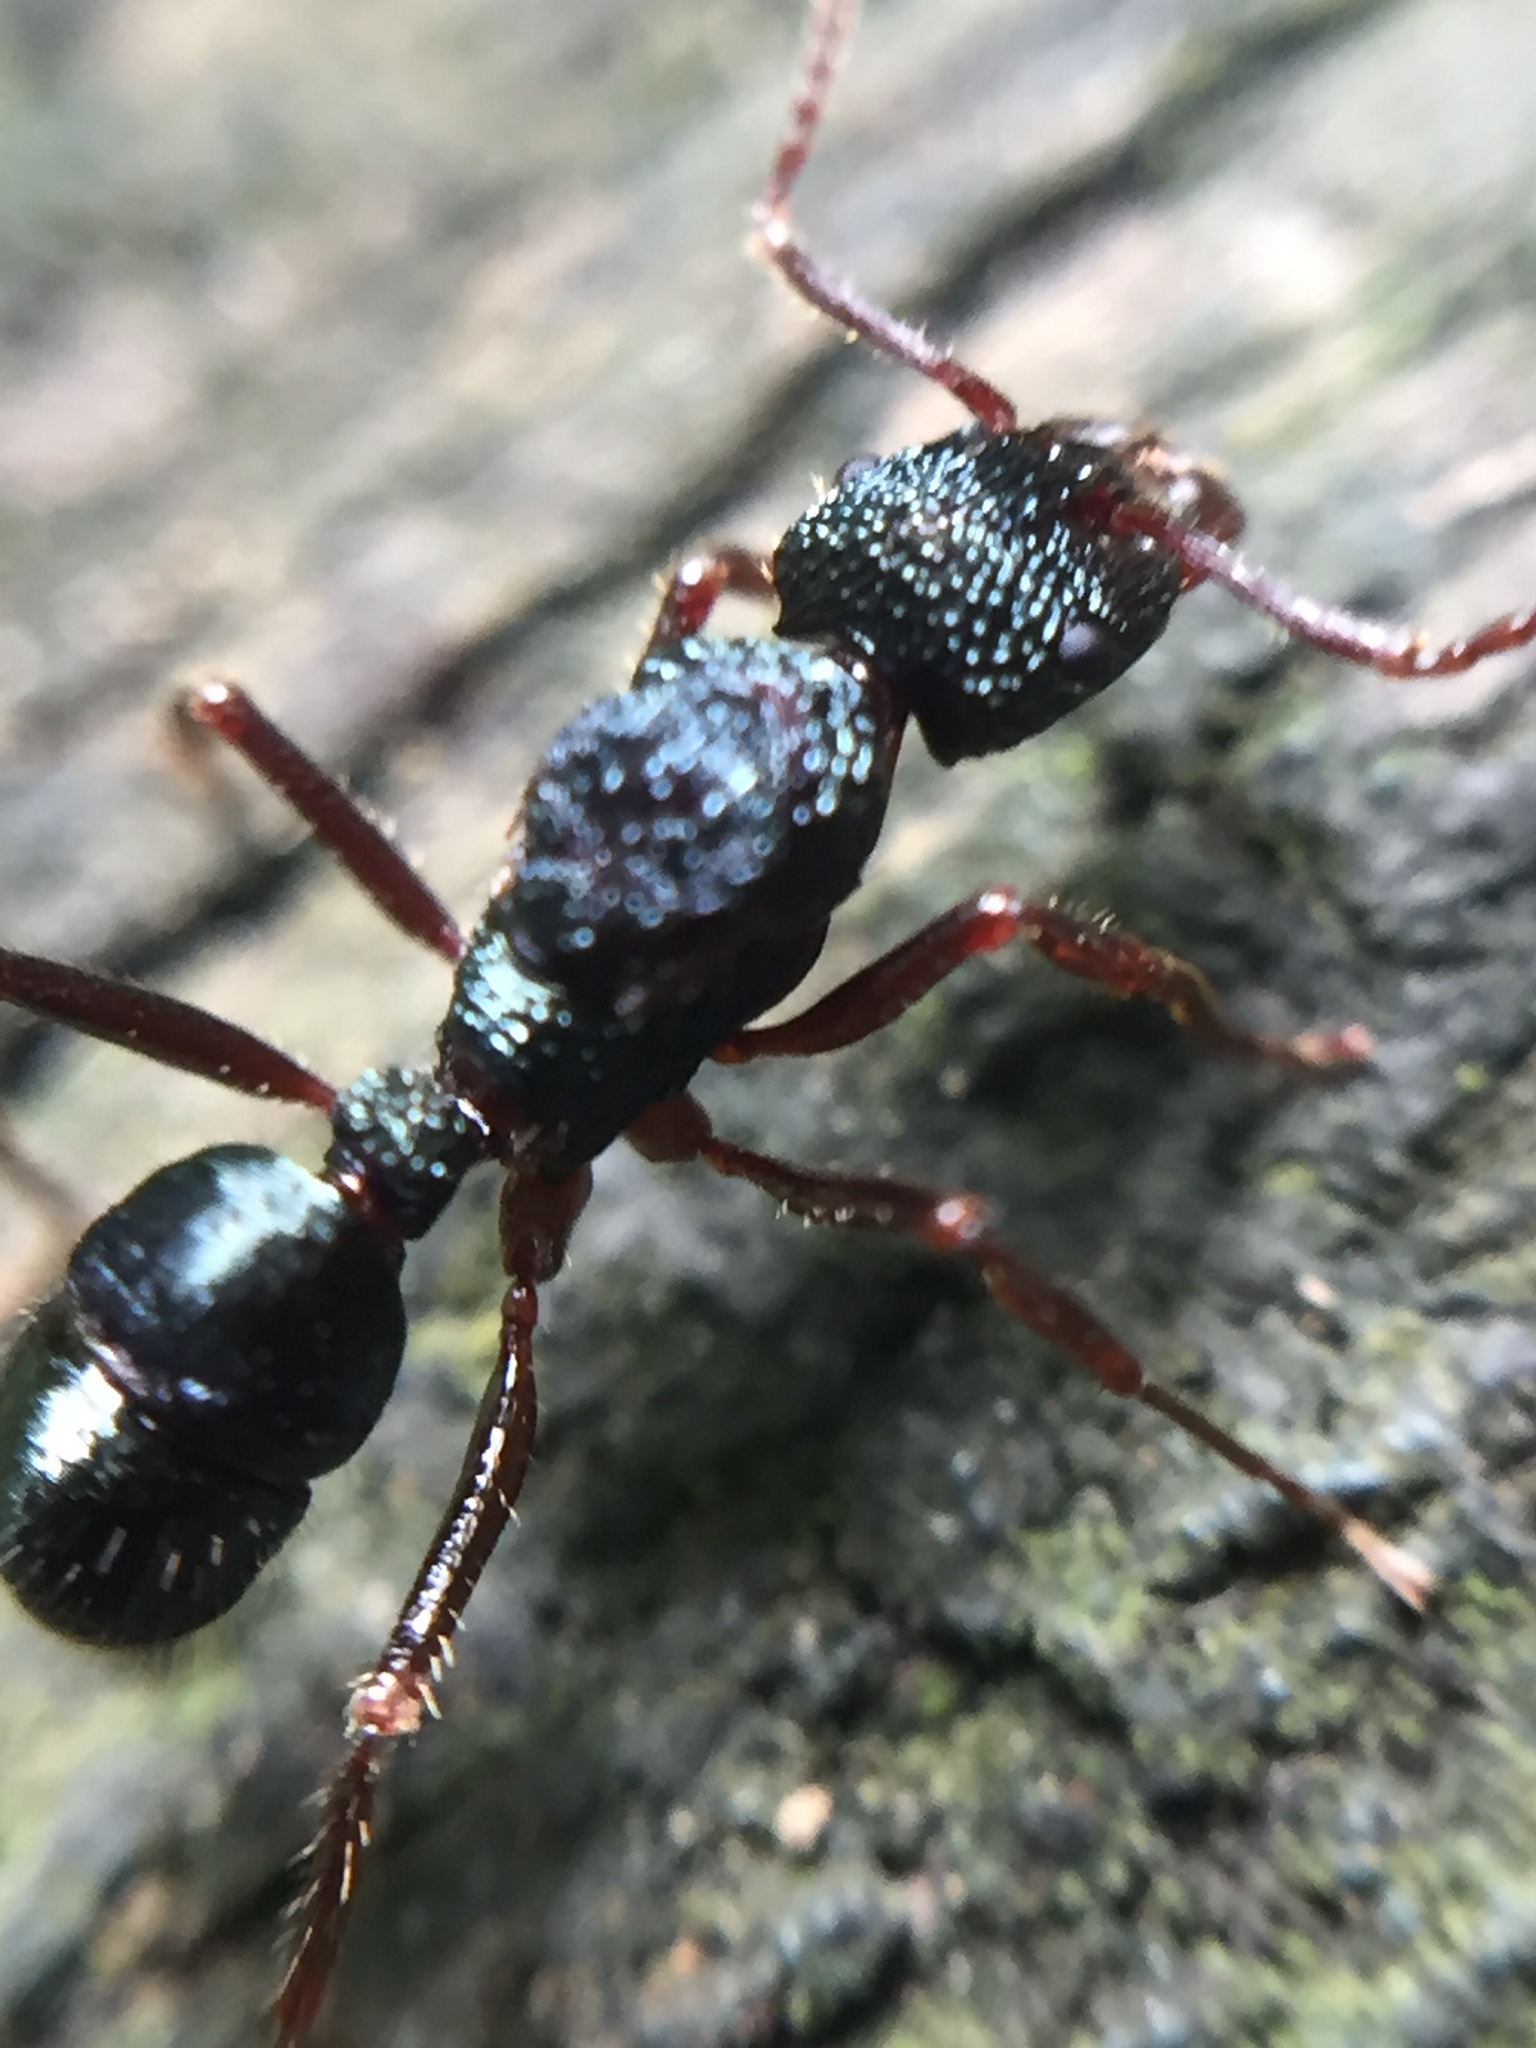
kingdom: Animalia
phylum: Arthropoda
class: Insecta
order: Hymenoptera
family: Formicidae
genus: Rhytidoponera
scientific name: Rhytidoponera chalybaea
